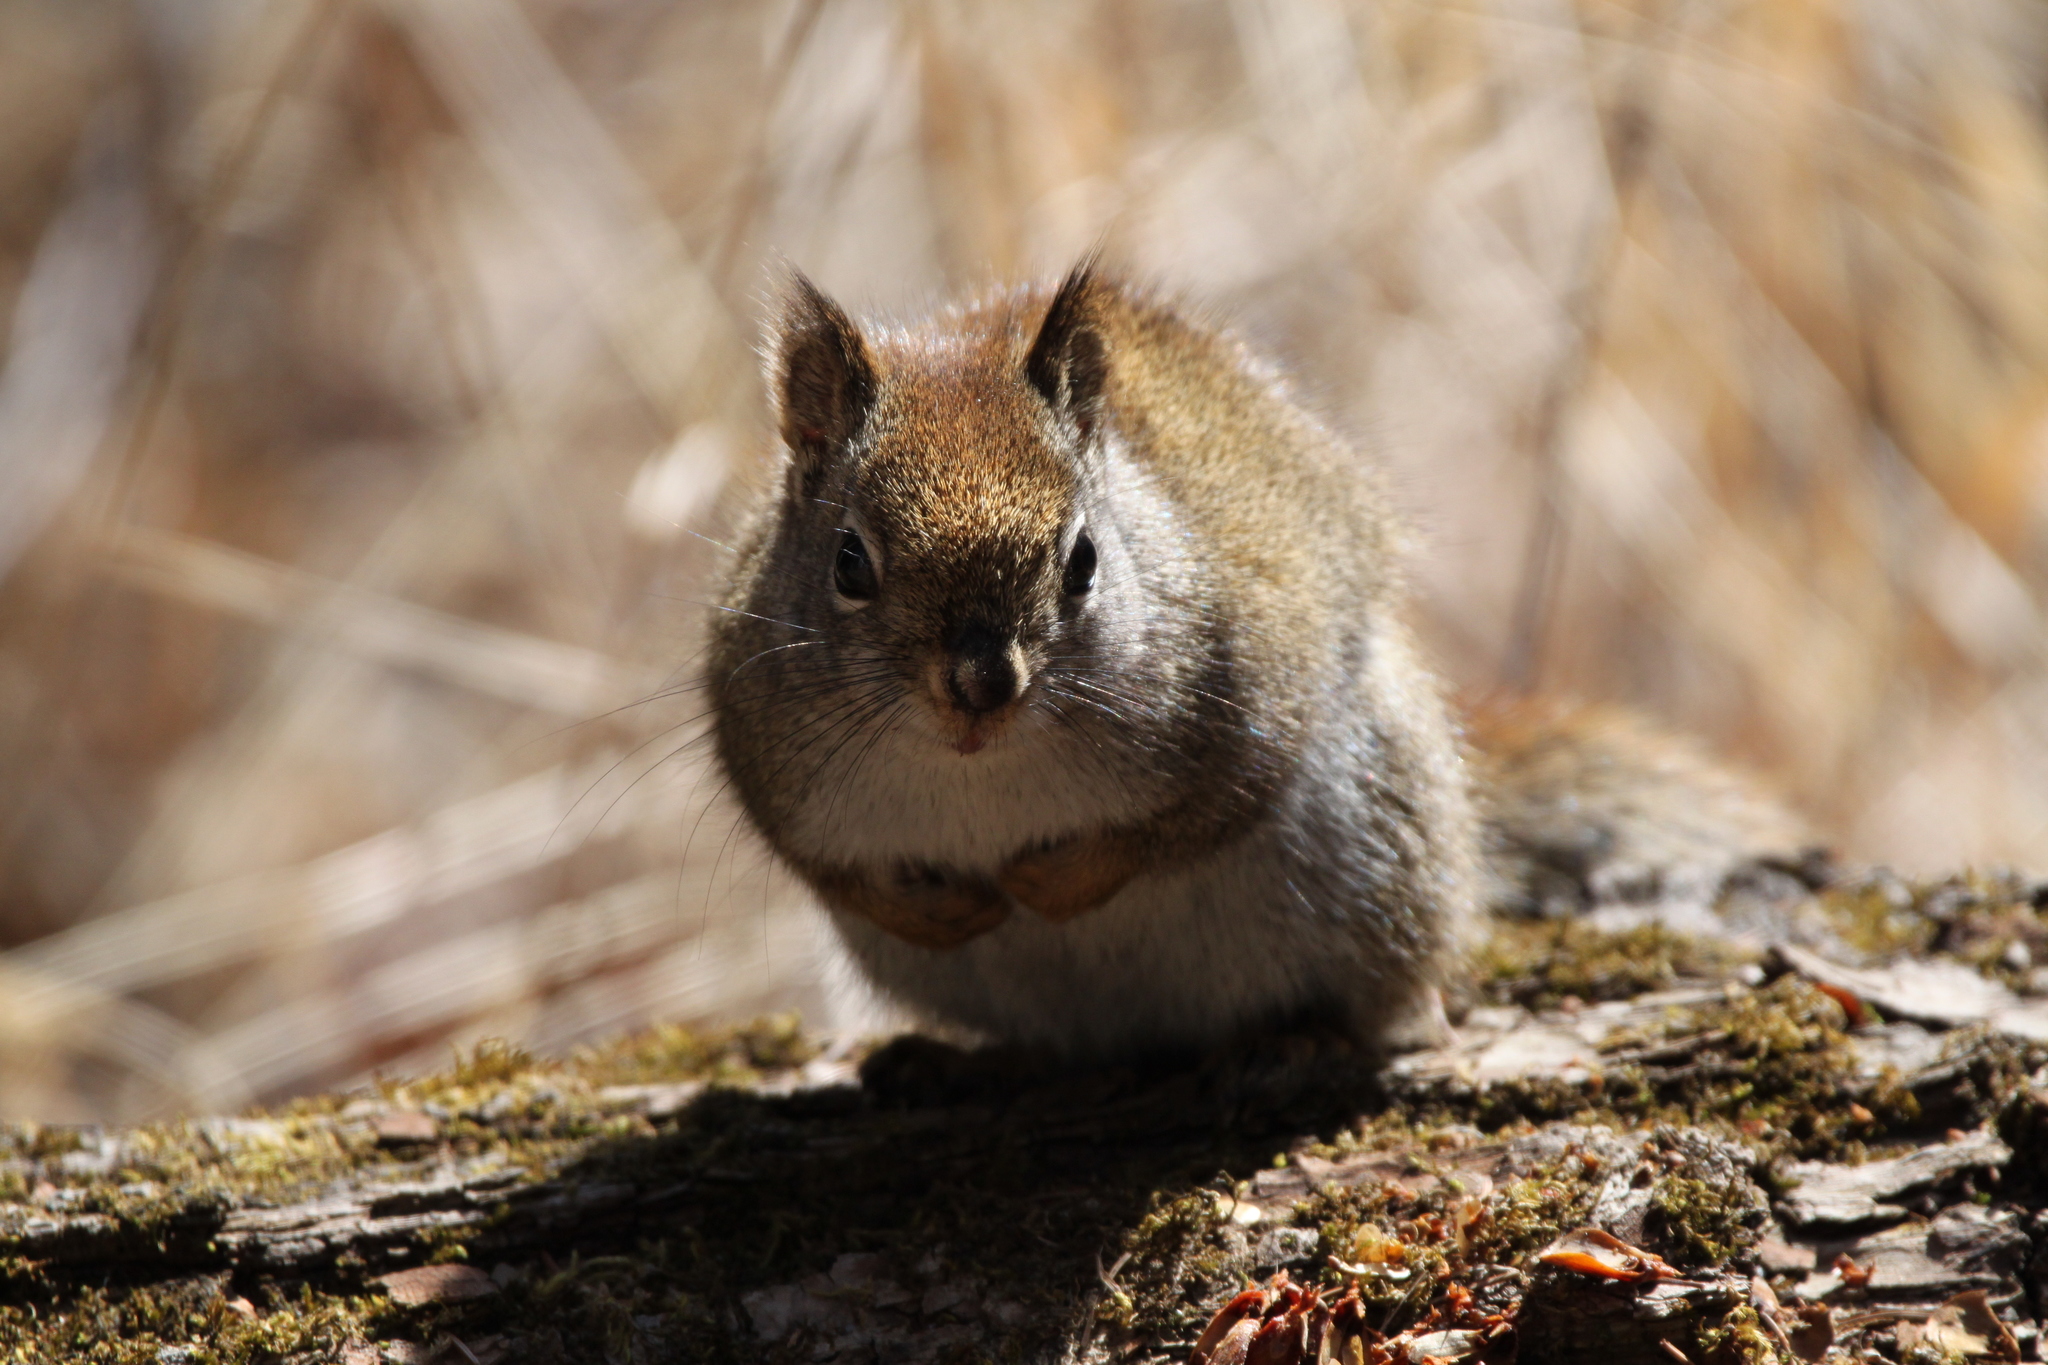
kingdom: Animalia
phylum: Chordata
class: Mammalia
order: Rodentia
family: Sciuridae
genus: Tamiasciurus
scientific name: Tamiasciurus hudsonicus
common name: Red squirrel
